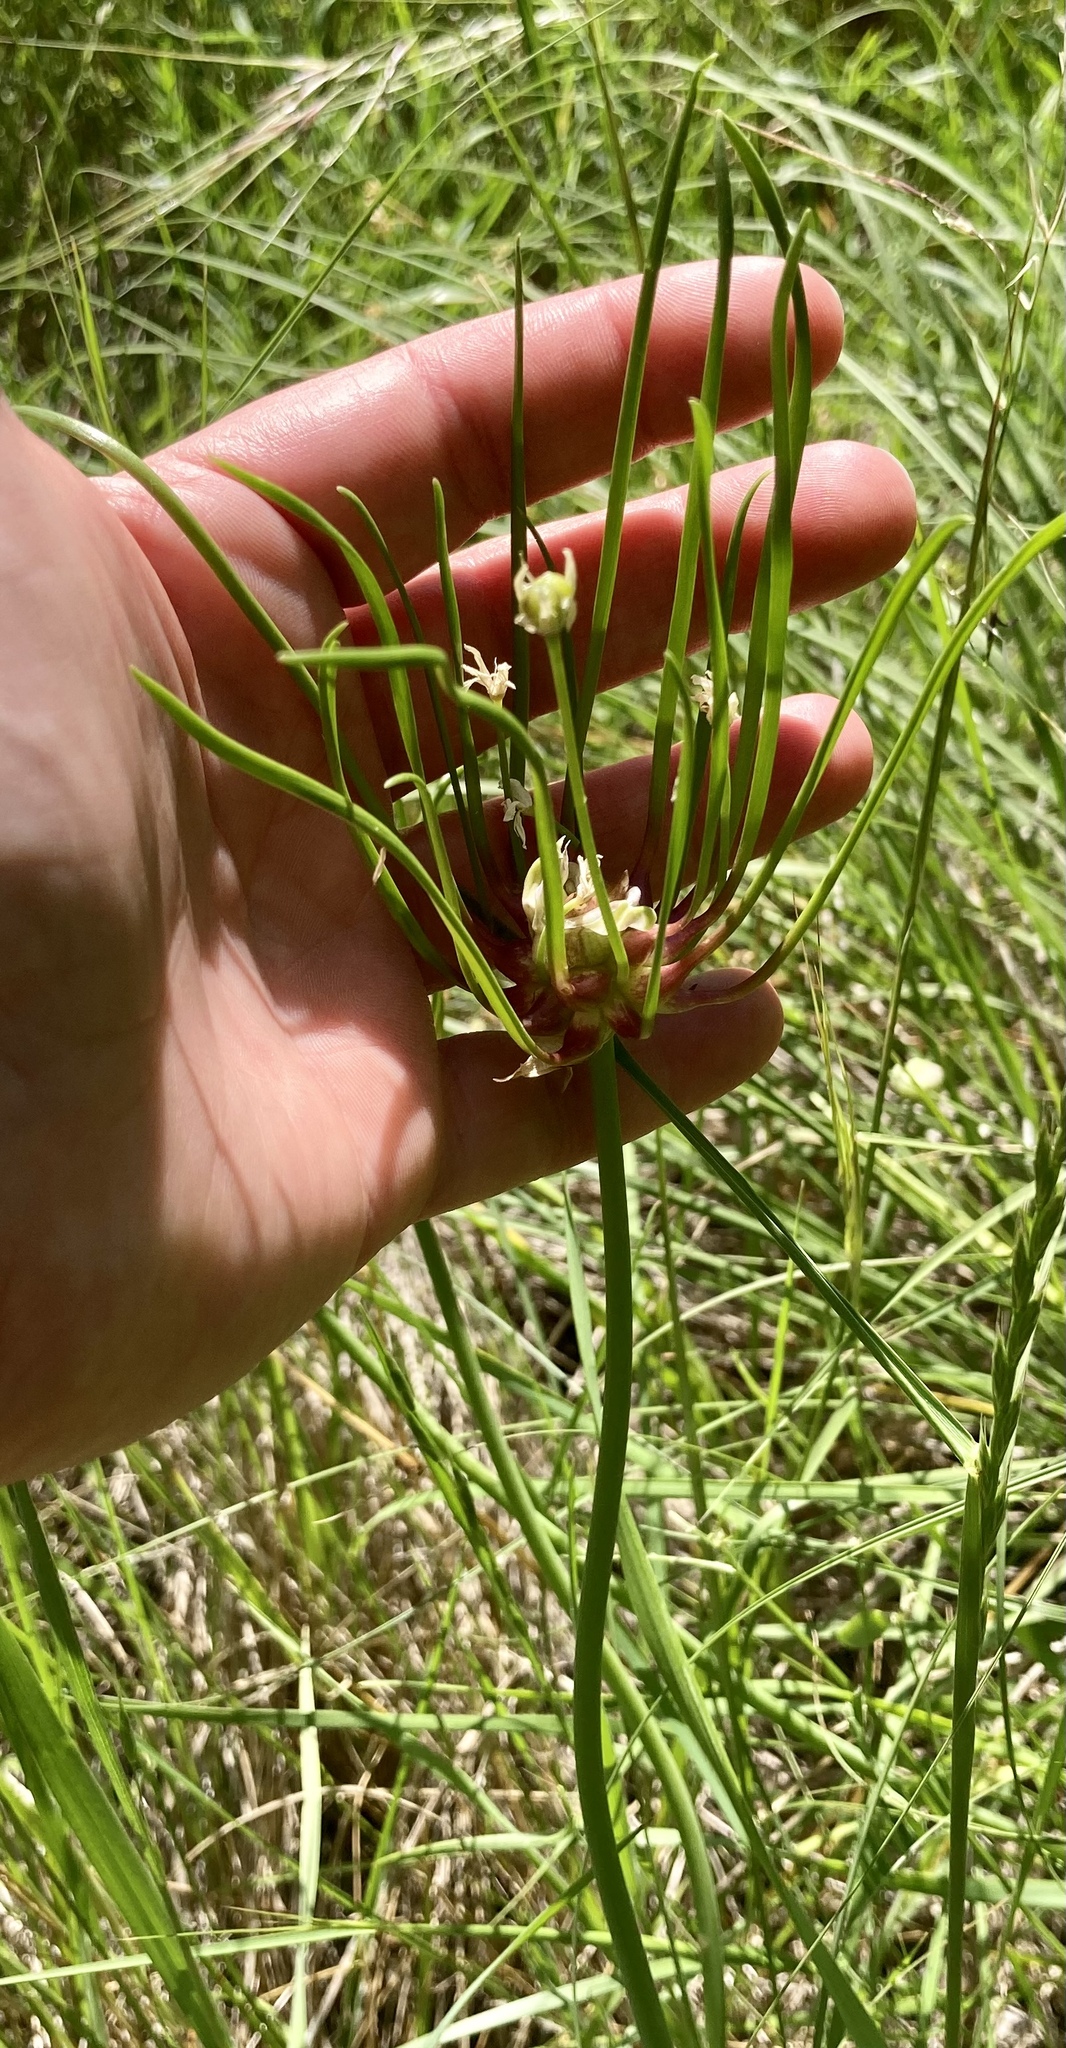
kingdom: Plantae
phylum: Tracheophyta
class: Liliopsida
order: Asparagales
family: Amaryllidaceae
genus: Allium
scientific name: Allium canadense
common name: Meadow garlic
